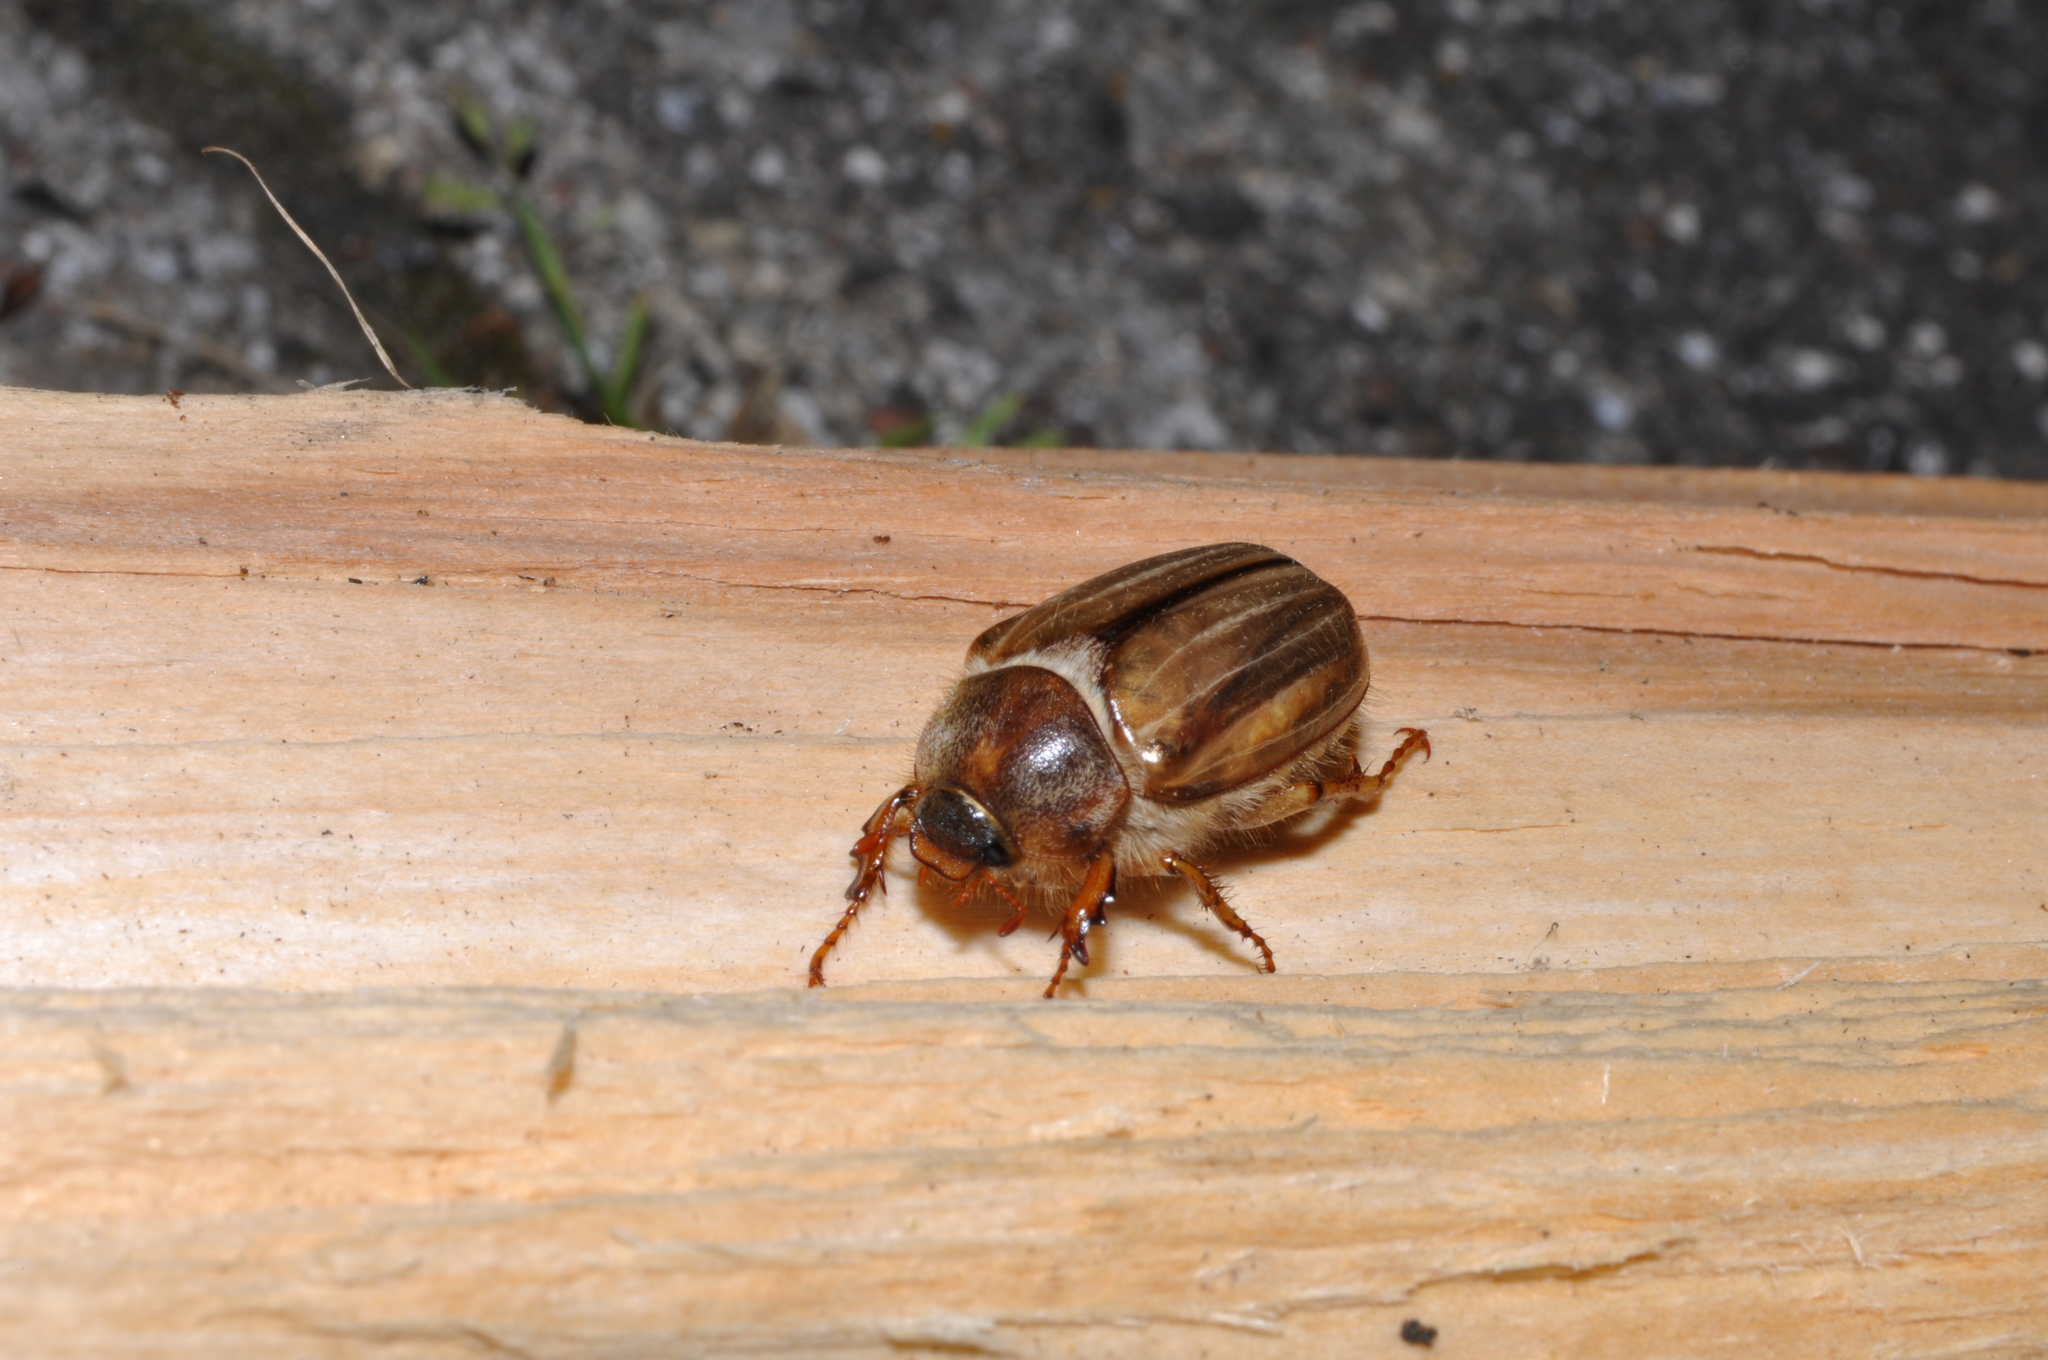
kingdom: Animalia
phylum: Arthropoda
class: Insecta
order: Coleoptera
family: Scarabaeidae
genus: Amphimallon
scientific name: Amphimallon solstitiale
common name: Summer chafer
